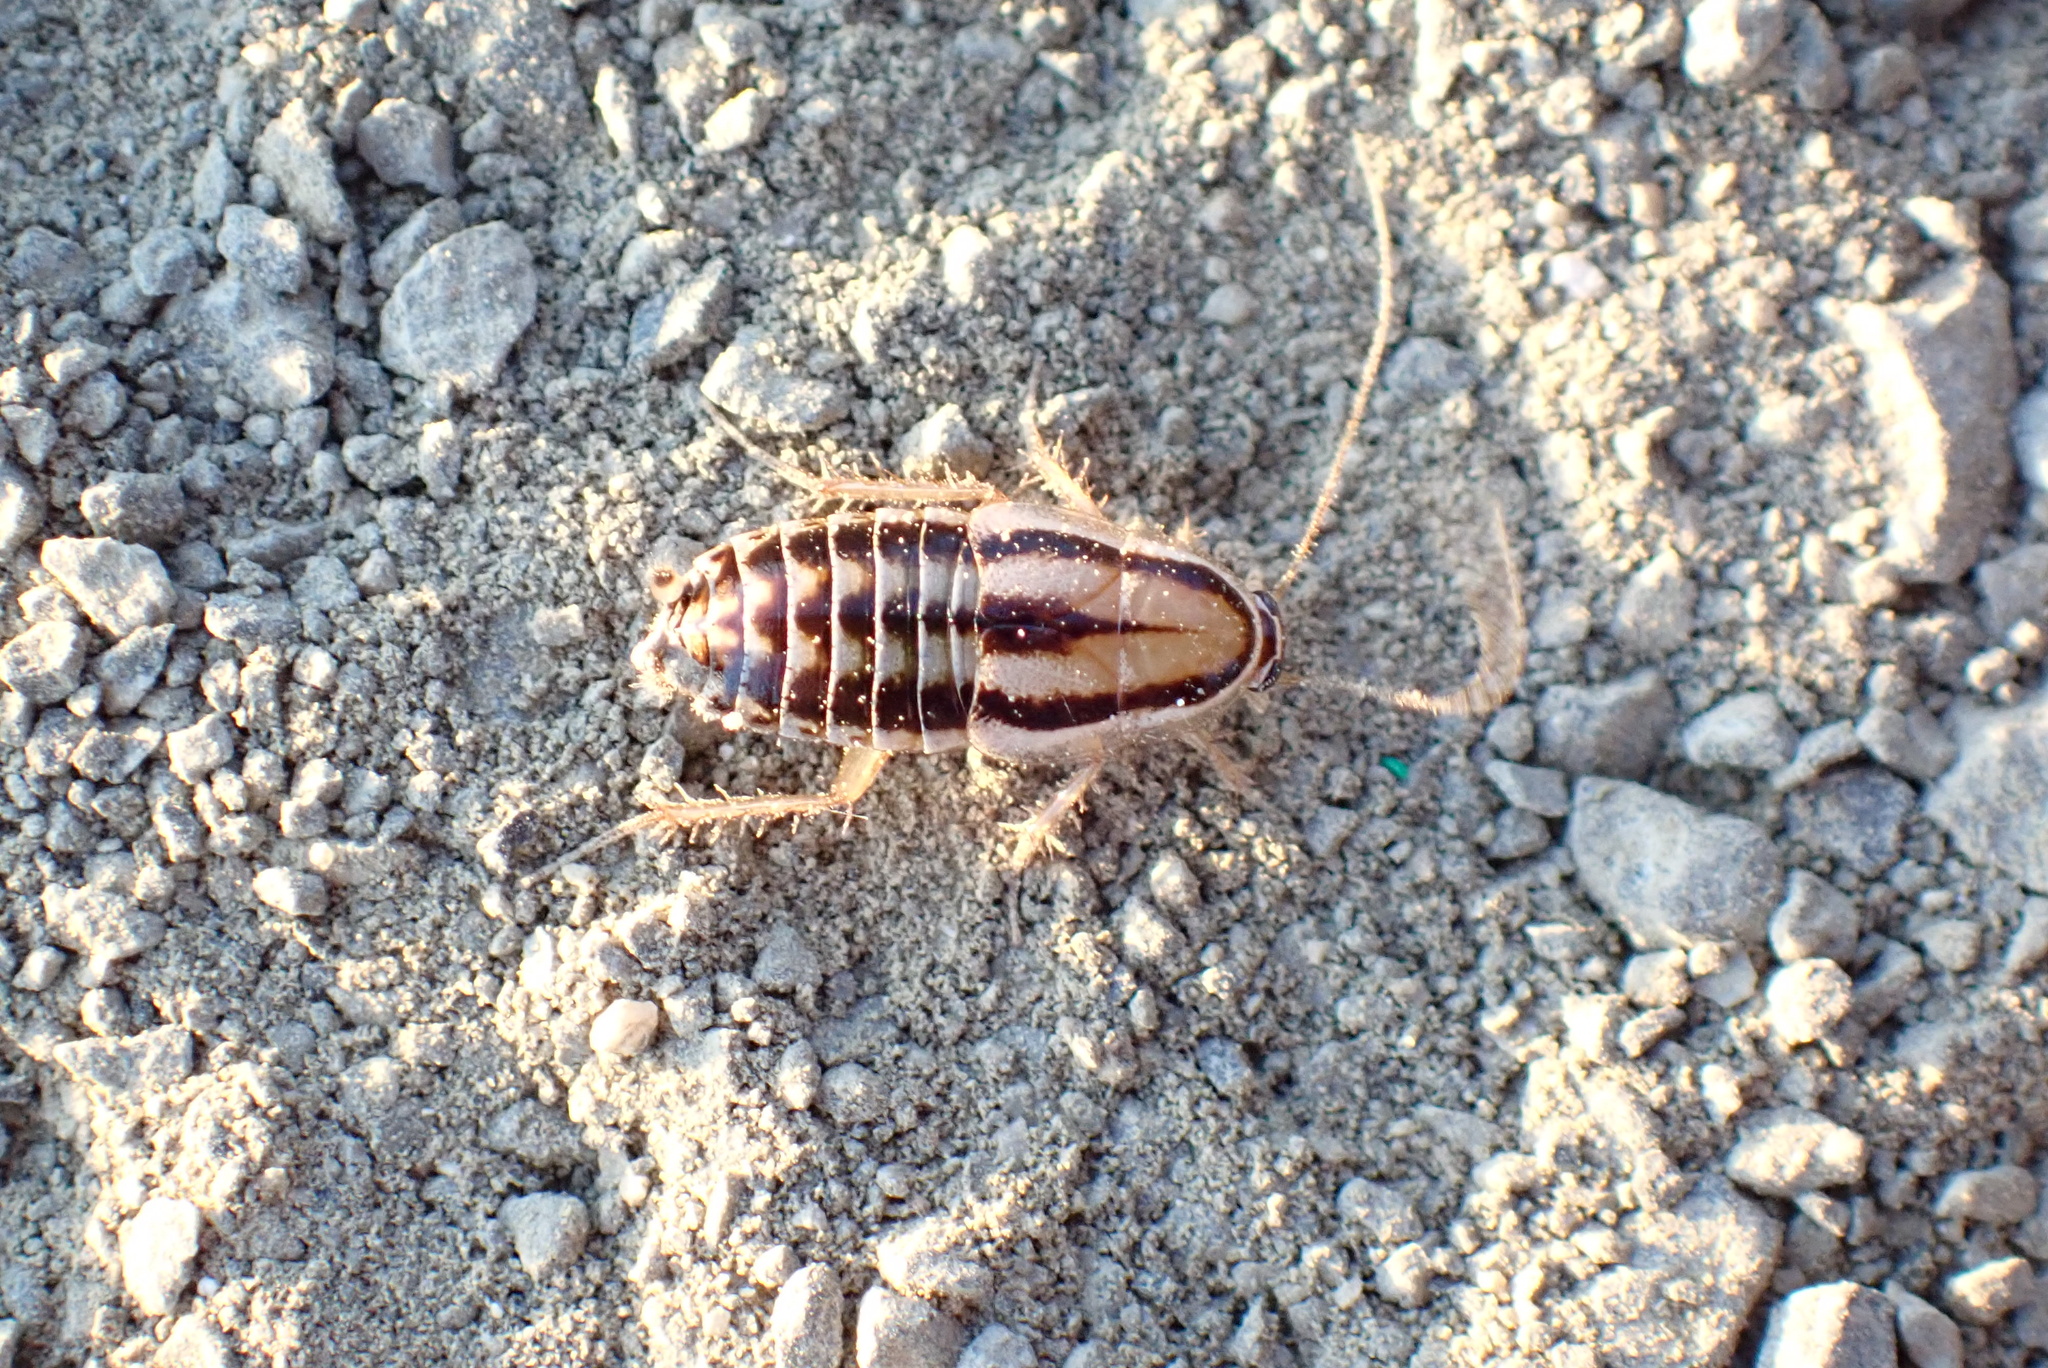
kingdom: Animalia
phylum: Arthropoda
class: Insecta
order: Blattodea
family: Ectobiidae
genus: Luridiblatta
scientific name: Luridiblatta trivittata
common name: Three-lined cockroach
